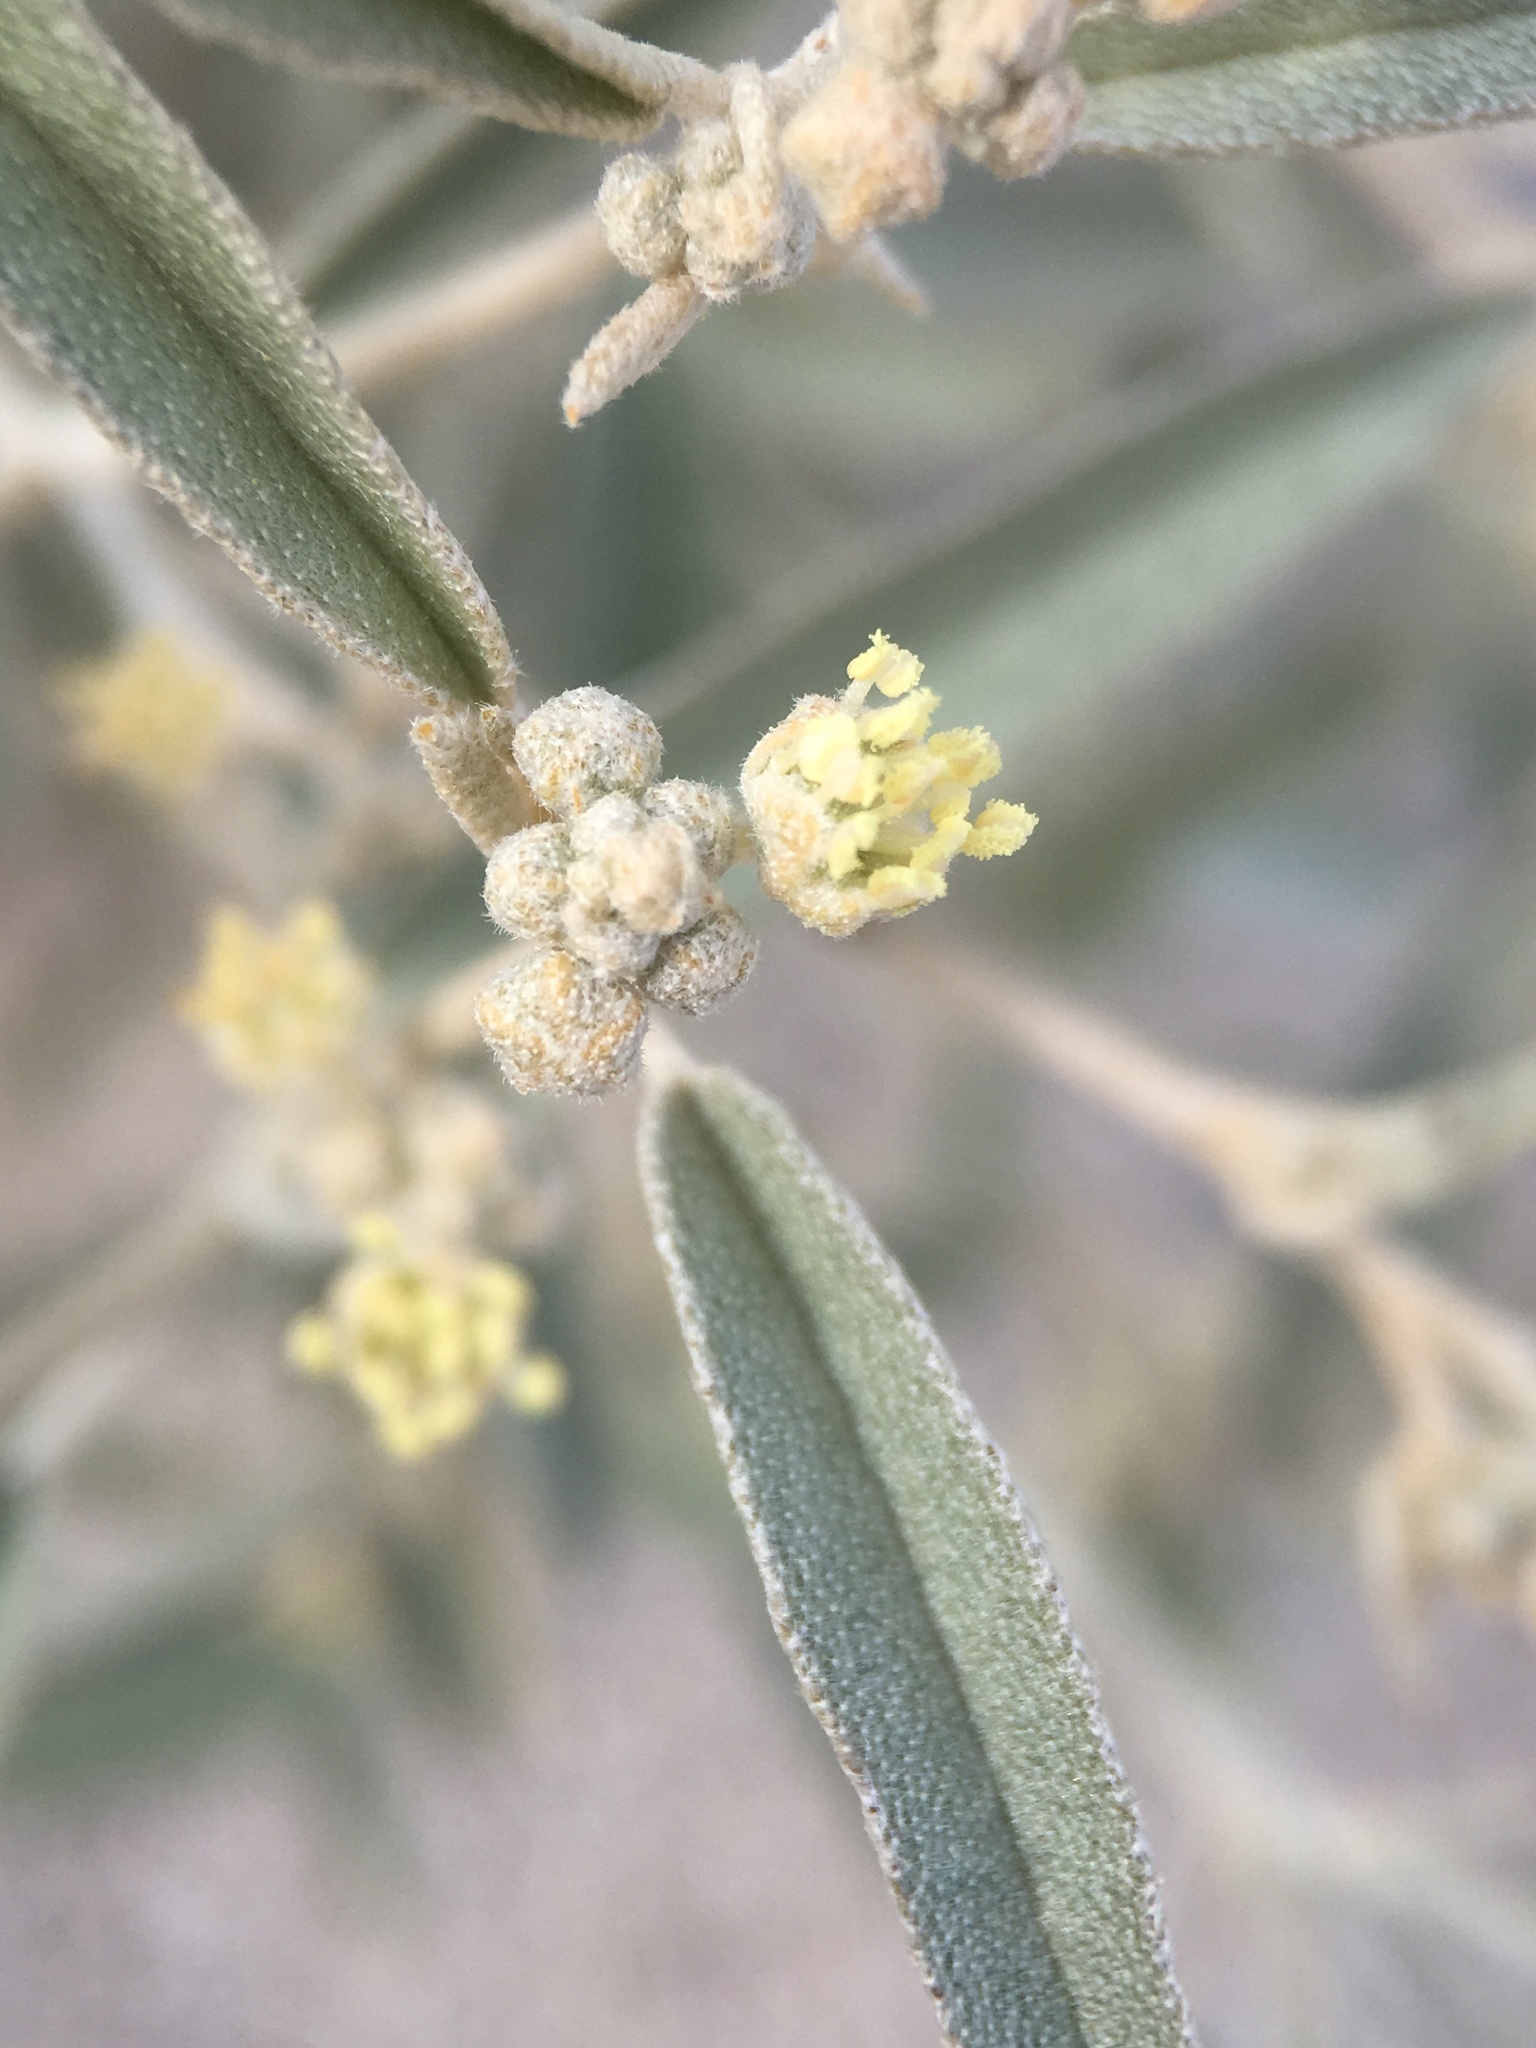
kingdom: Plantae
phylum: Tracheophyta
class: Magnoliopsida
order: Malpighiales
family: Euphorbiaceae
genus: Croton
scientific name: Croton californicus
